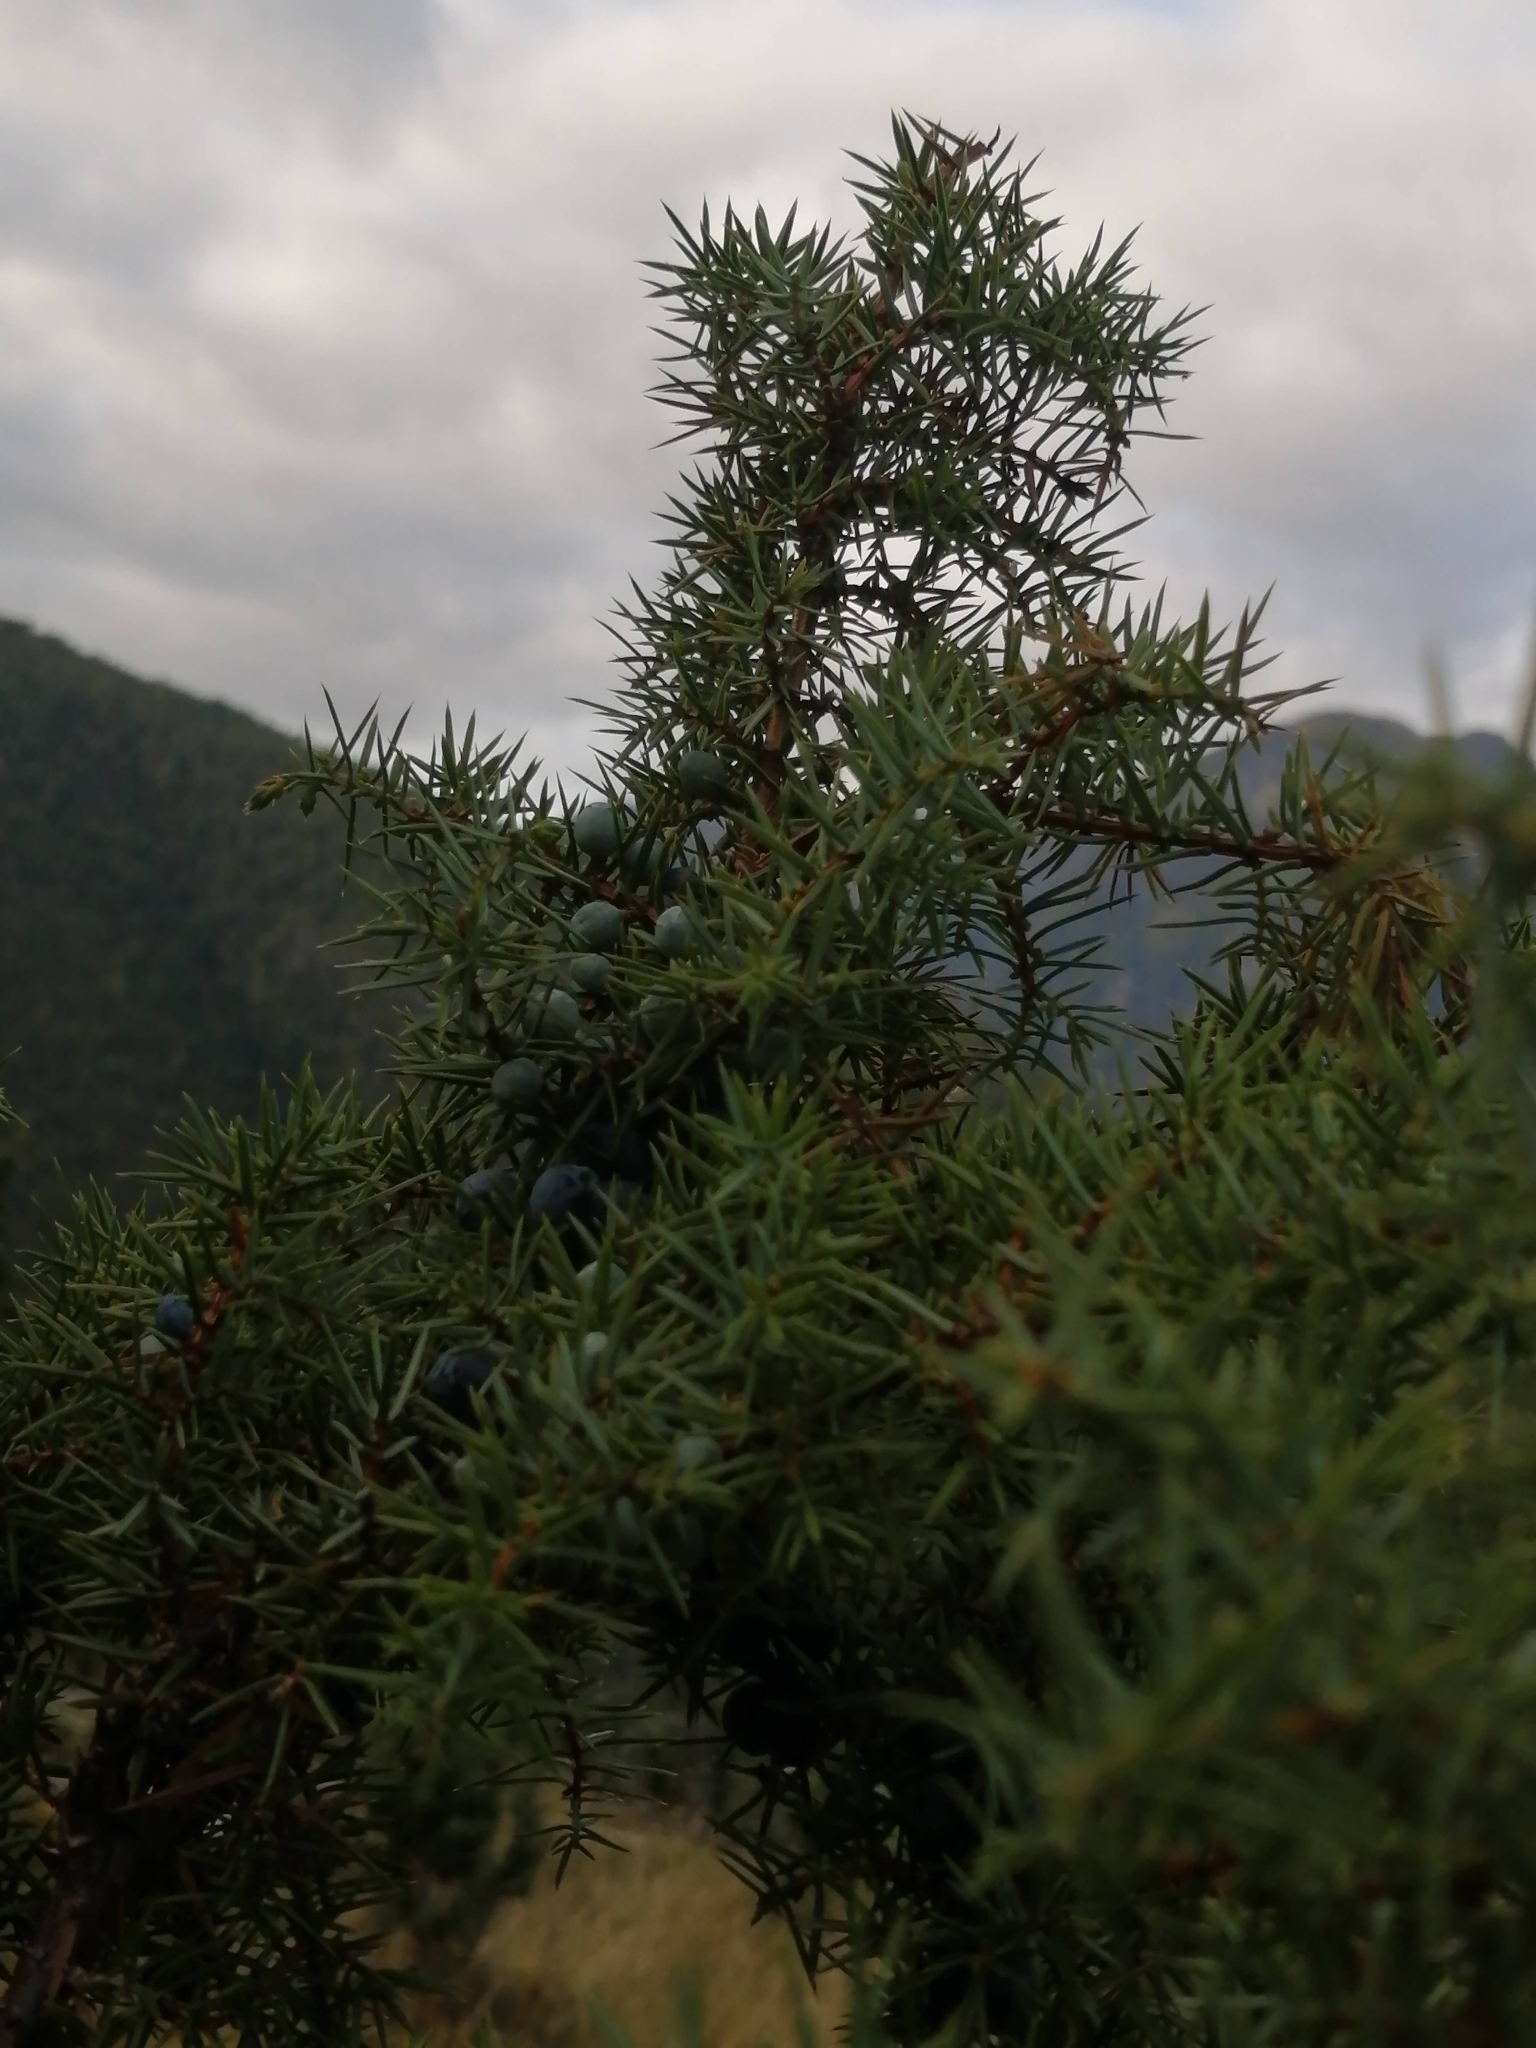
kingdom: Plantae
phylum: Tracheophyta
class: Pinopsida
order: Pinales
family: Cupressaceae
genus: Juniperus
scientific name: Juniperus communis
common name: Common juniper
